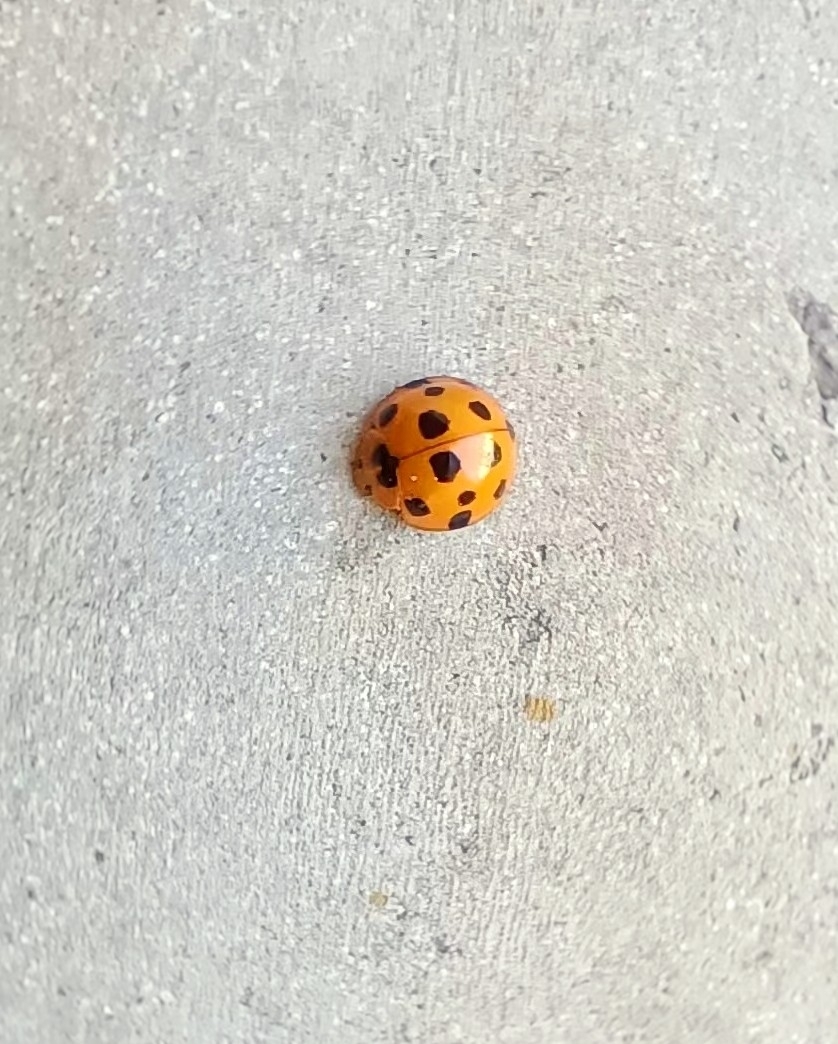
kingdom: Animalia
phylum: Arthropoda
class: Insecta
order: Coleoptera
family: Coccinellidae
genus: Harmonia
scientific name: Harmonia dimidiata
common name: Ladybird beetle
